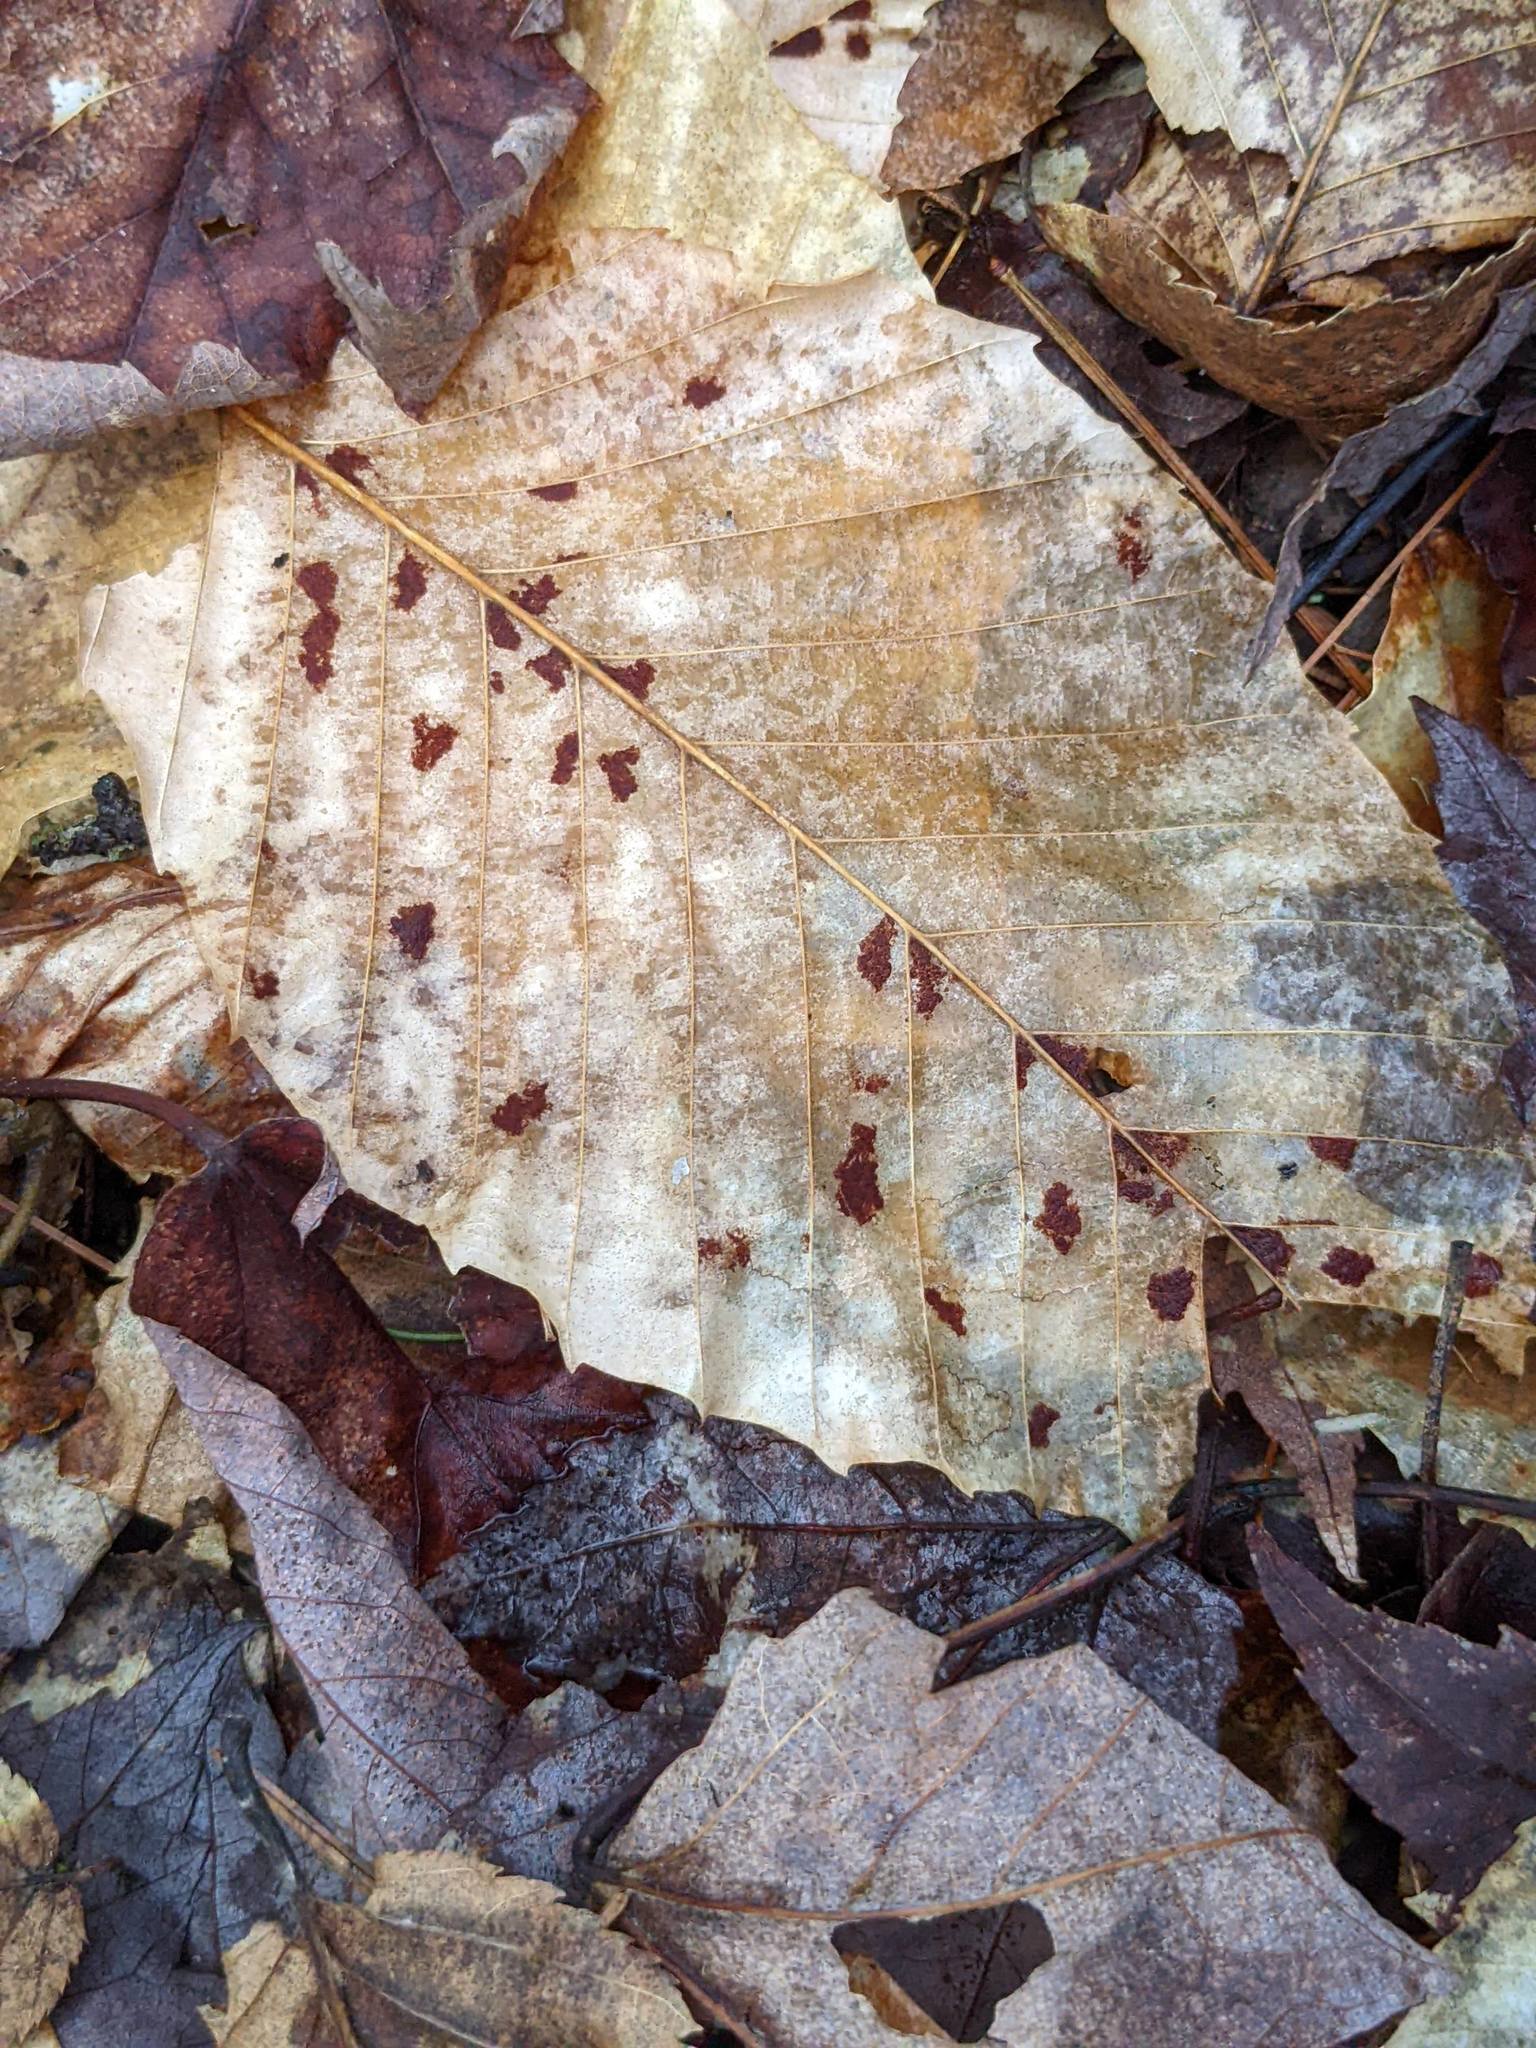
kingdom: Animalia
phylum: Arthropoda
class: Arachnida
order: Trombidiformes
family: Eriophyidae
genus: Acalitus
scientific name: Acalitus
